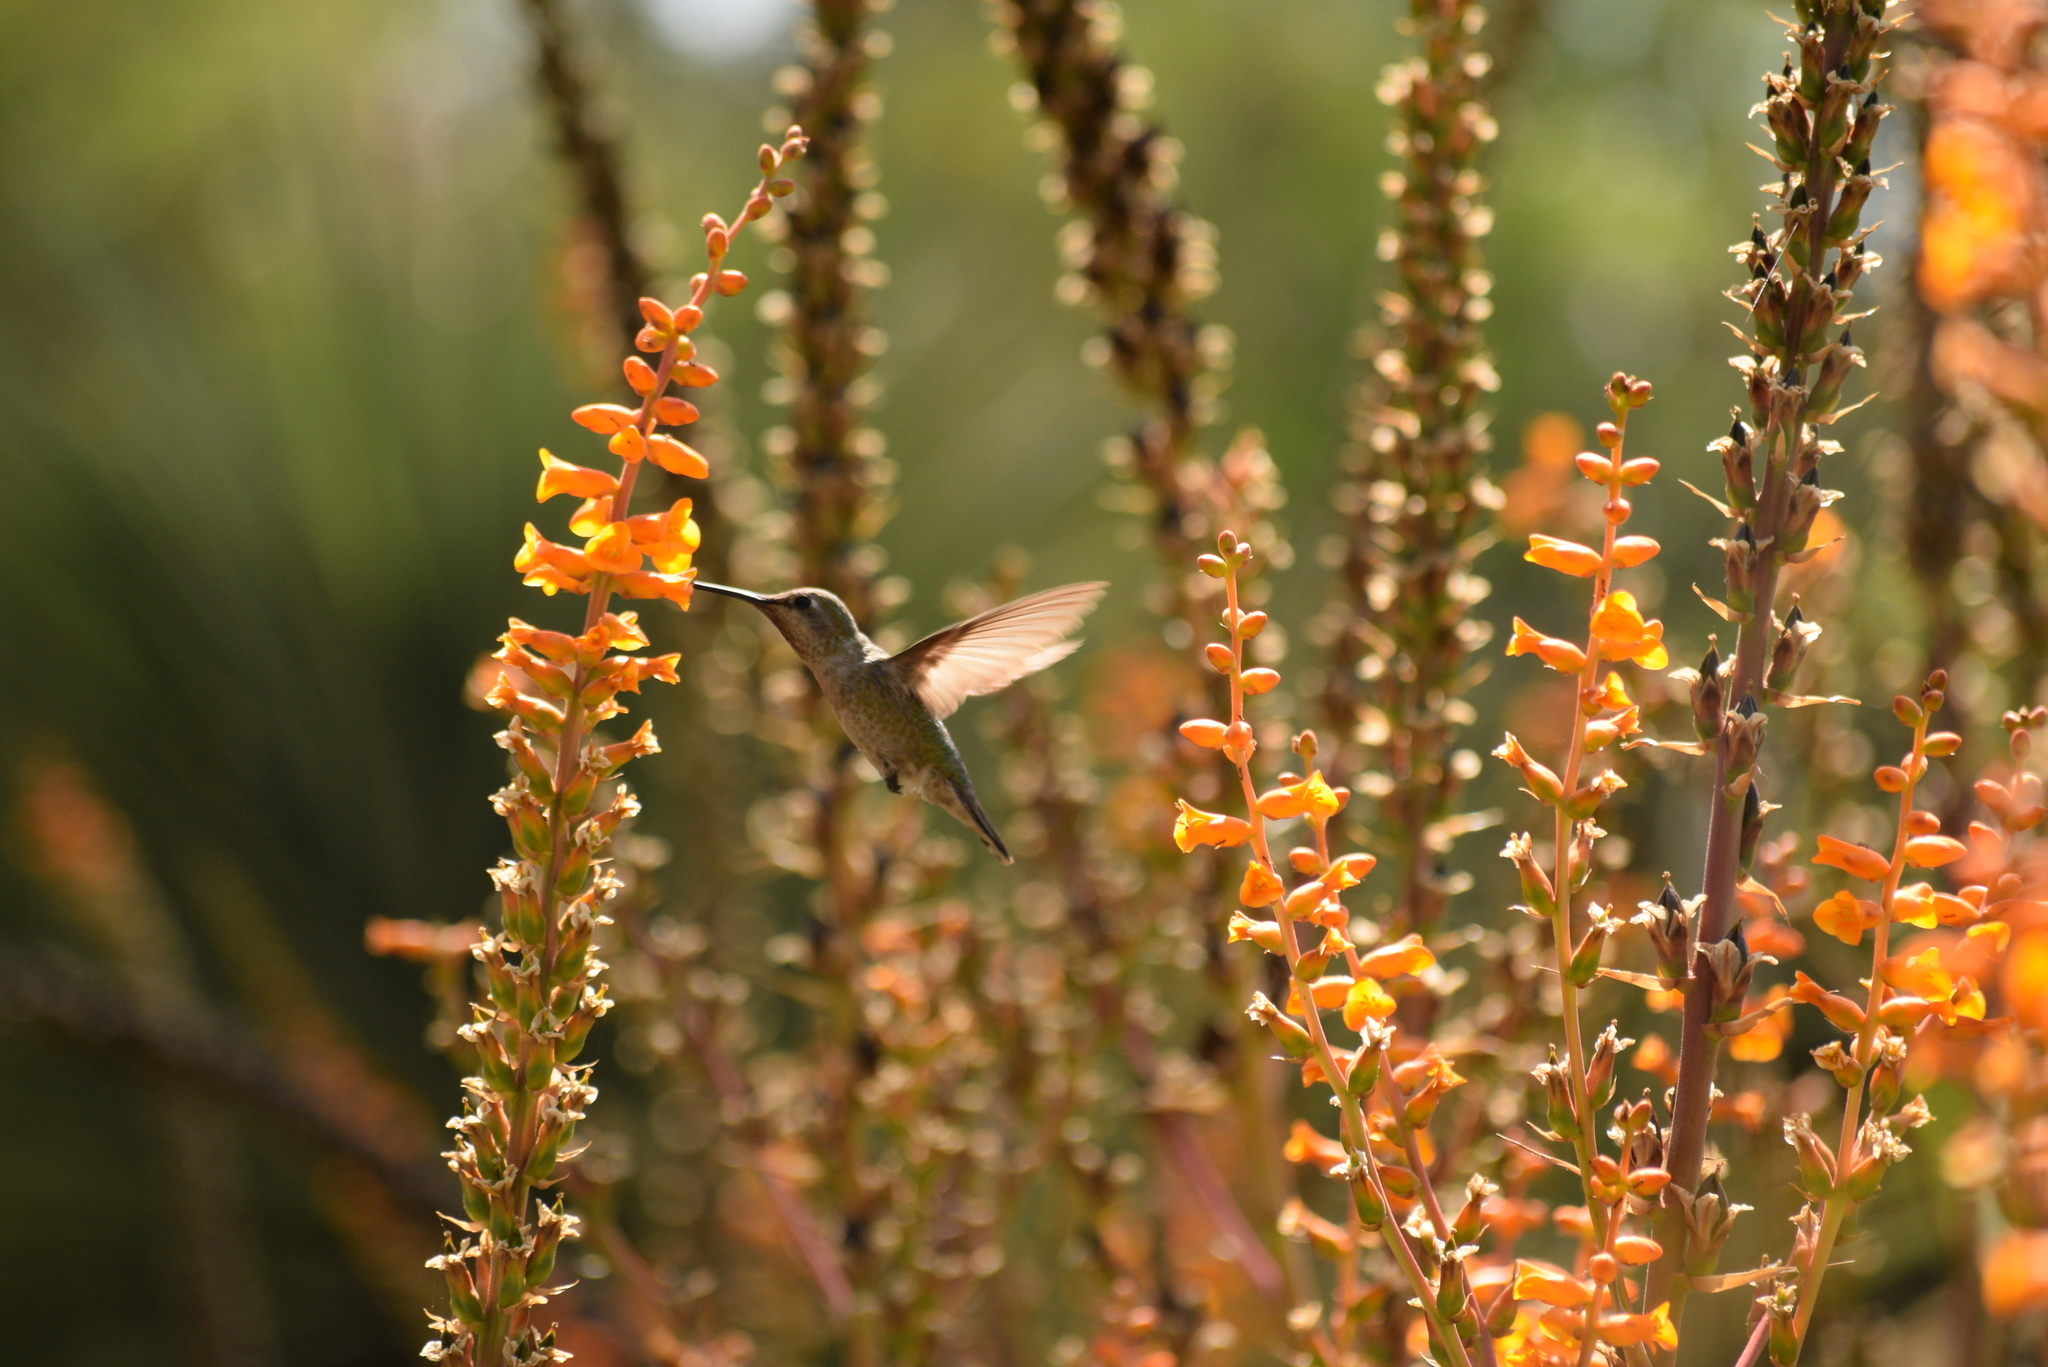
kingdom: Animalia
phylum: Chordata
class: Aves
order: Apodiformes
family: Trochilidae
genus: Calypte
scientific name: Calypte anna
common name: Anna's hummingbird
